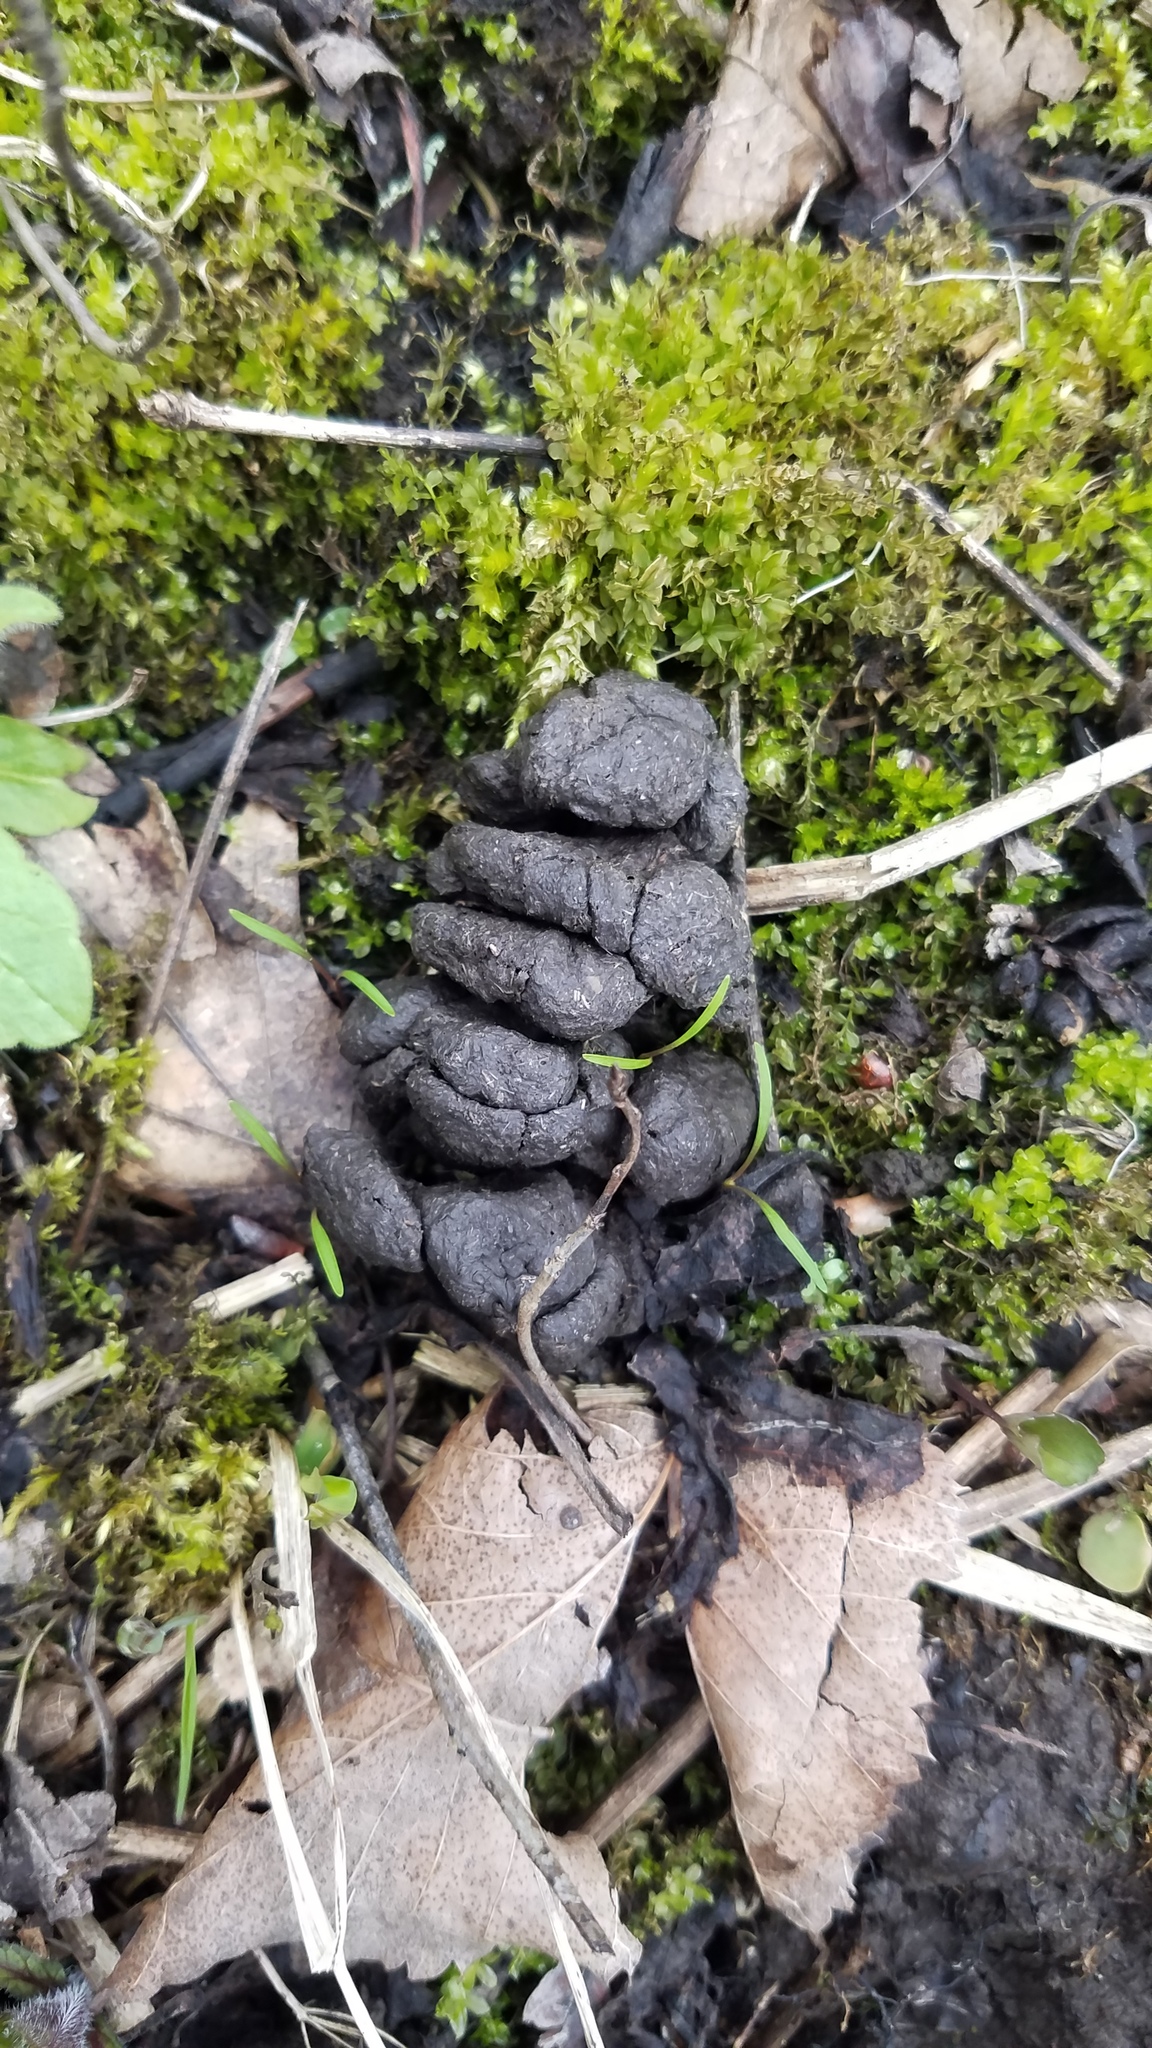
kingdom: Animalia
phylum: Chordata
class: Mammalia
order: Artiodactyla
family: Cervidae
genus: Odocoileus
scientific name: Odocoileus virginianus
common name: White-tailed deer
